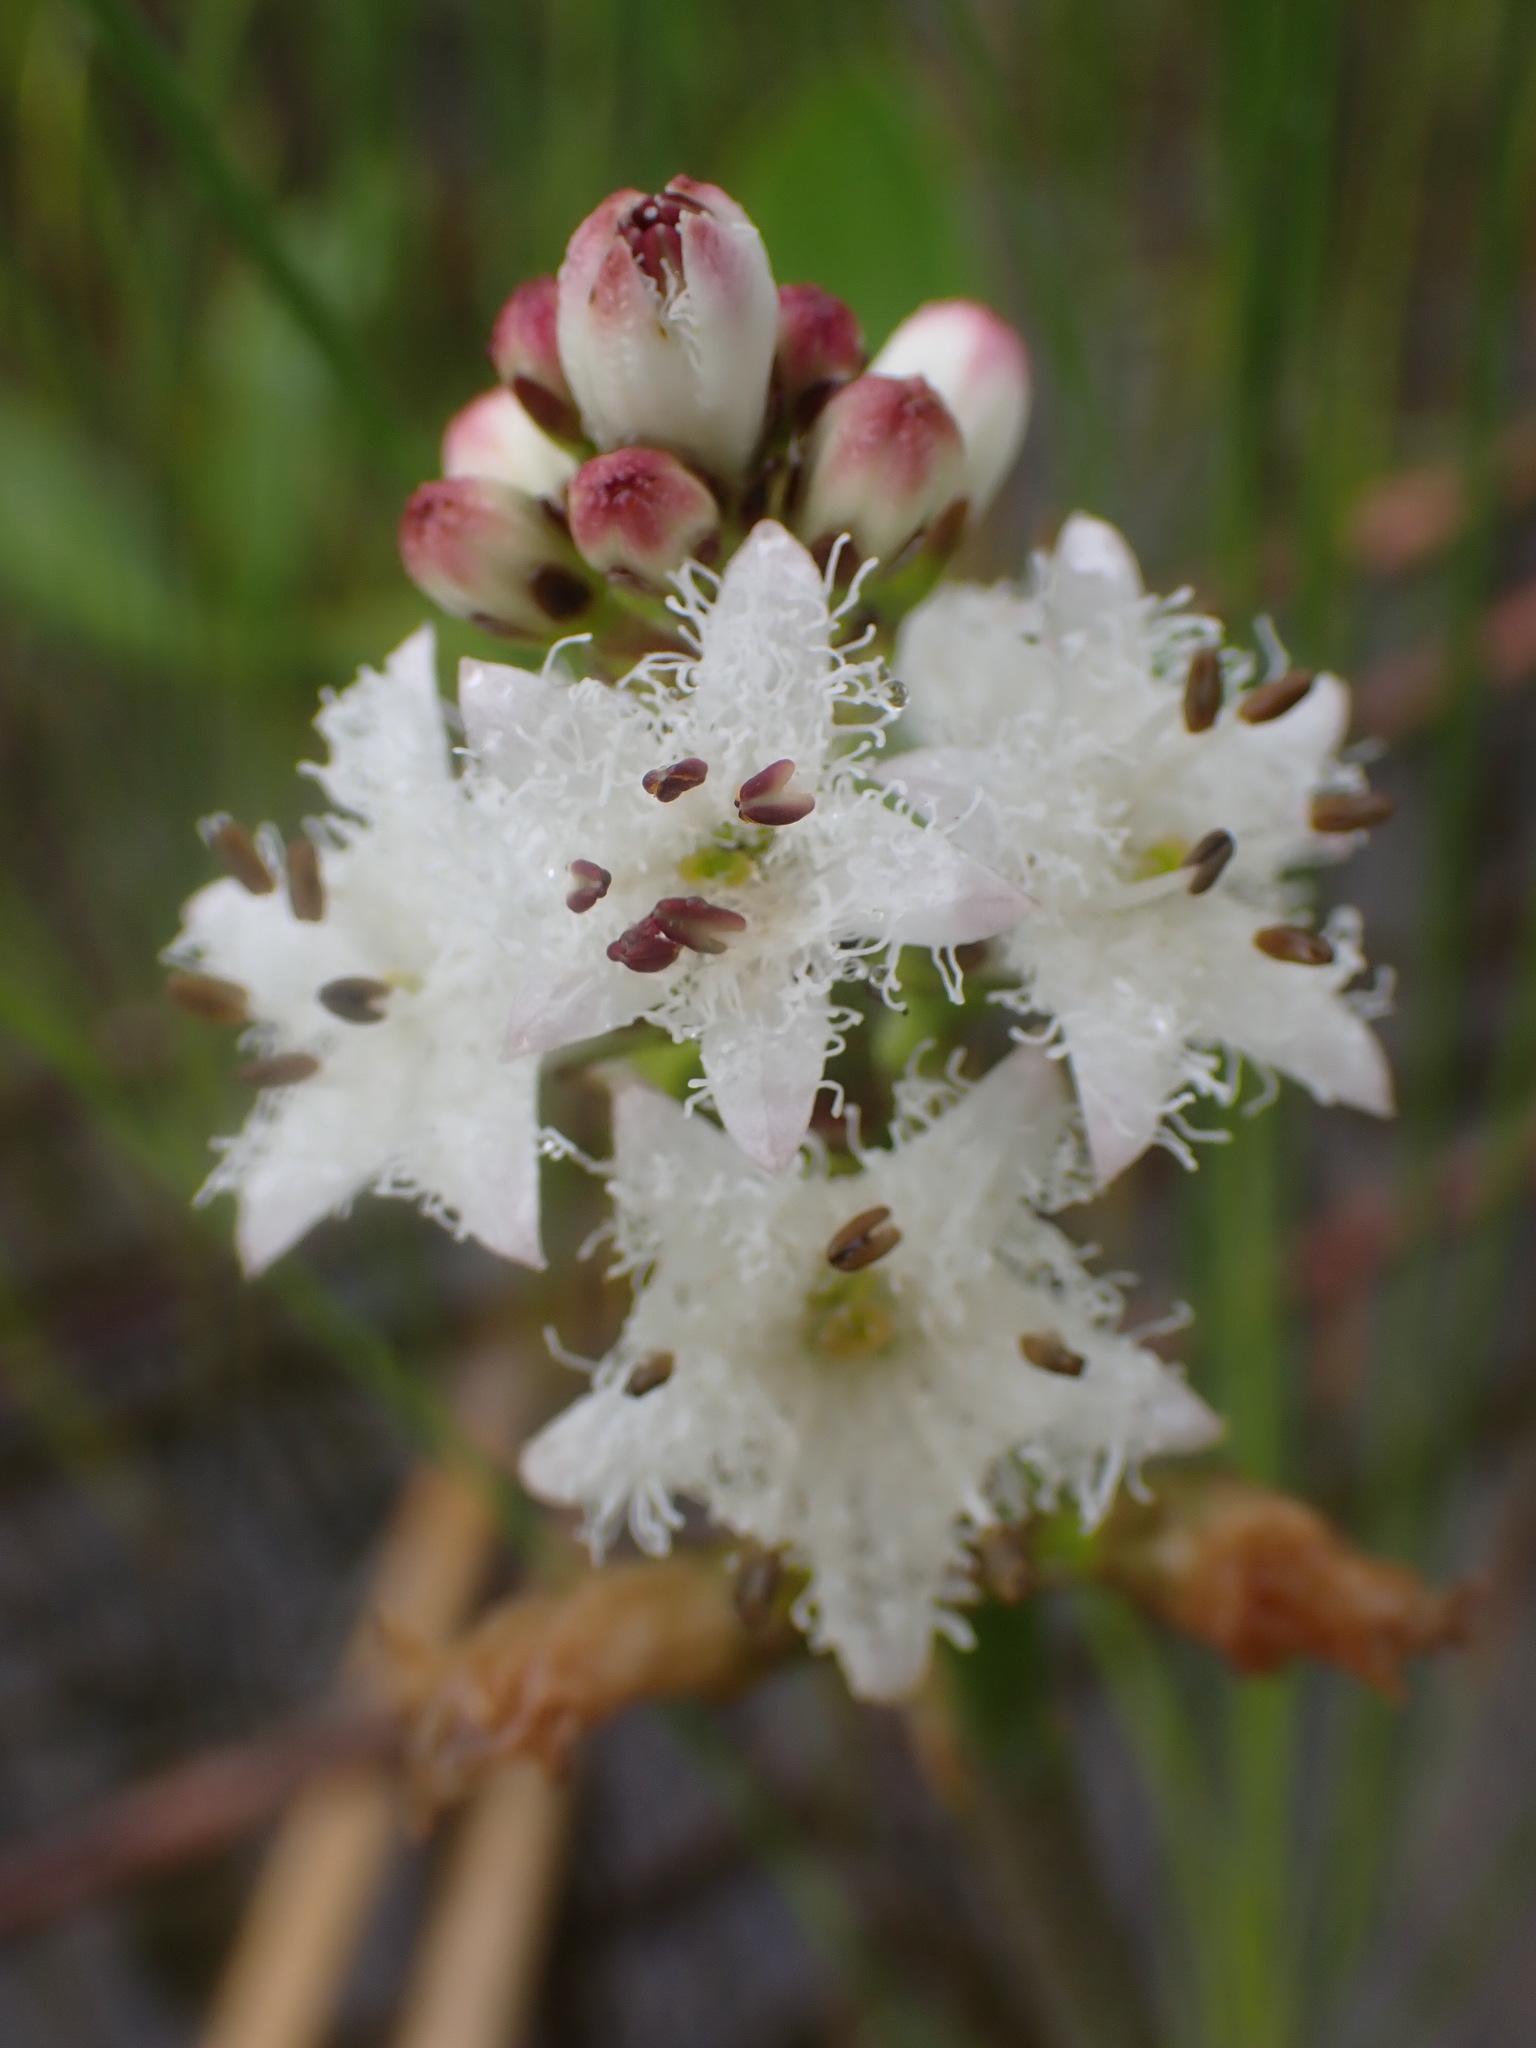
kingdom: Plantae
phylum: Tracheophyta
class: Magnoliopsida
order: Asterales
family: Menyanthaceae
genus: Menyanthes
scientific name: Menyanthes trifoliata
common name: Bogbean
